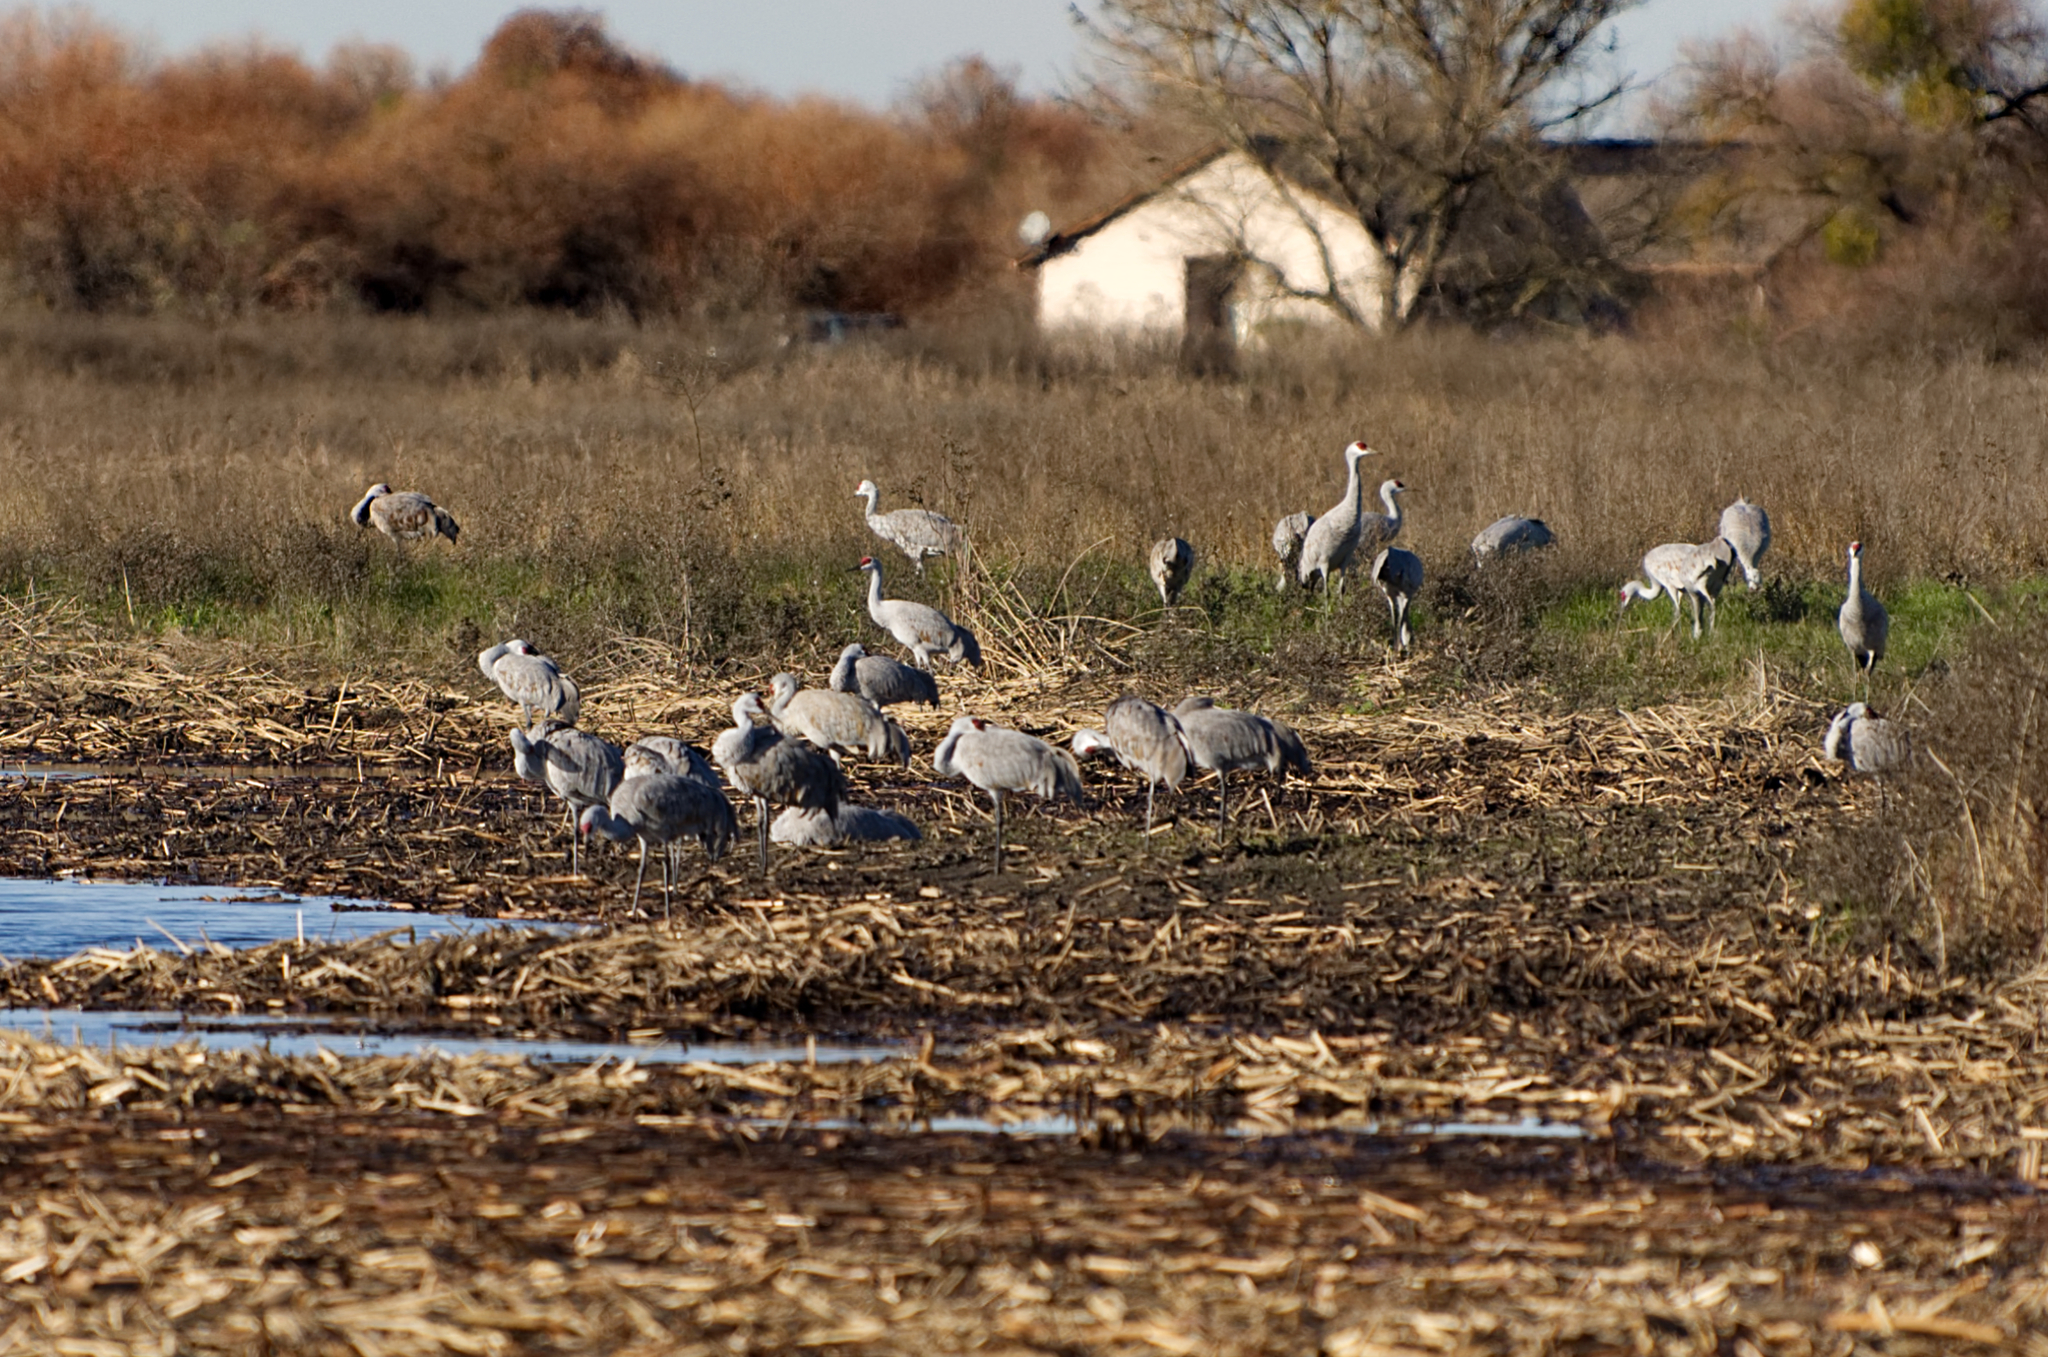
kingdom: Animalia
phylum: Chordata
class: Aves
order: Gruiformes
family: Gruidae
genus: Grus
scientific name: Grus canadensis
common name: Sandhill crane
